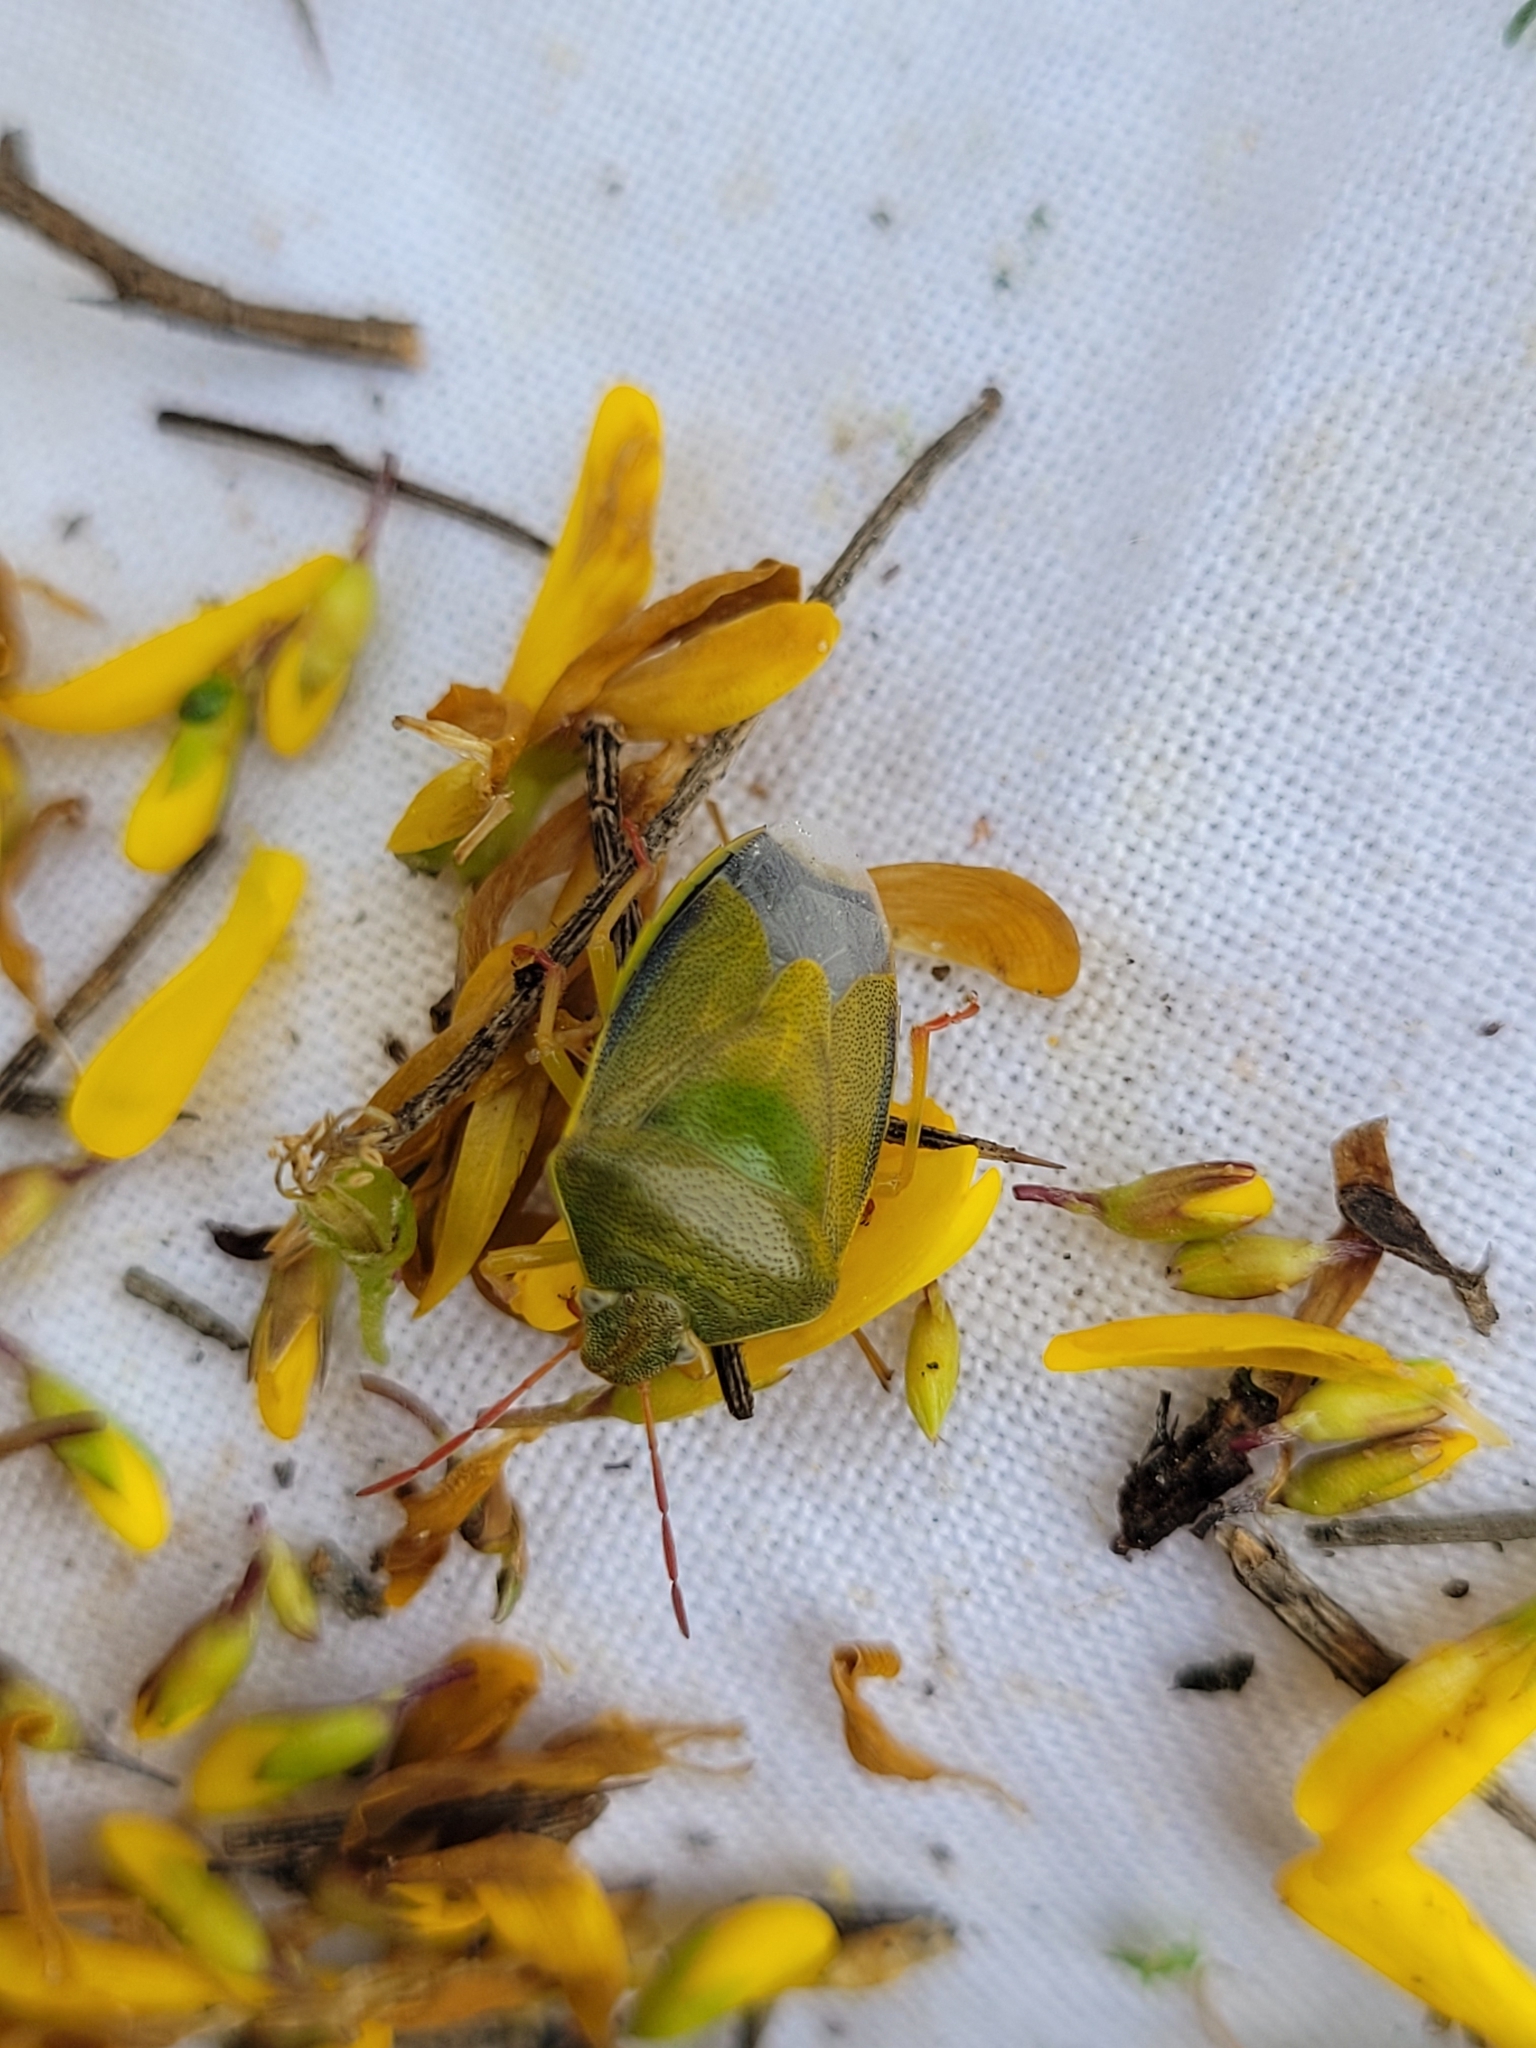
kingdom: Animalia
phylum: Arthropoda
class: Insecta
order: Hemiptera
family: Pentatomidae
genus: Piezodorus
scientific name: Piezodorus lituratus
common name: Stink bug
